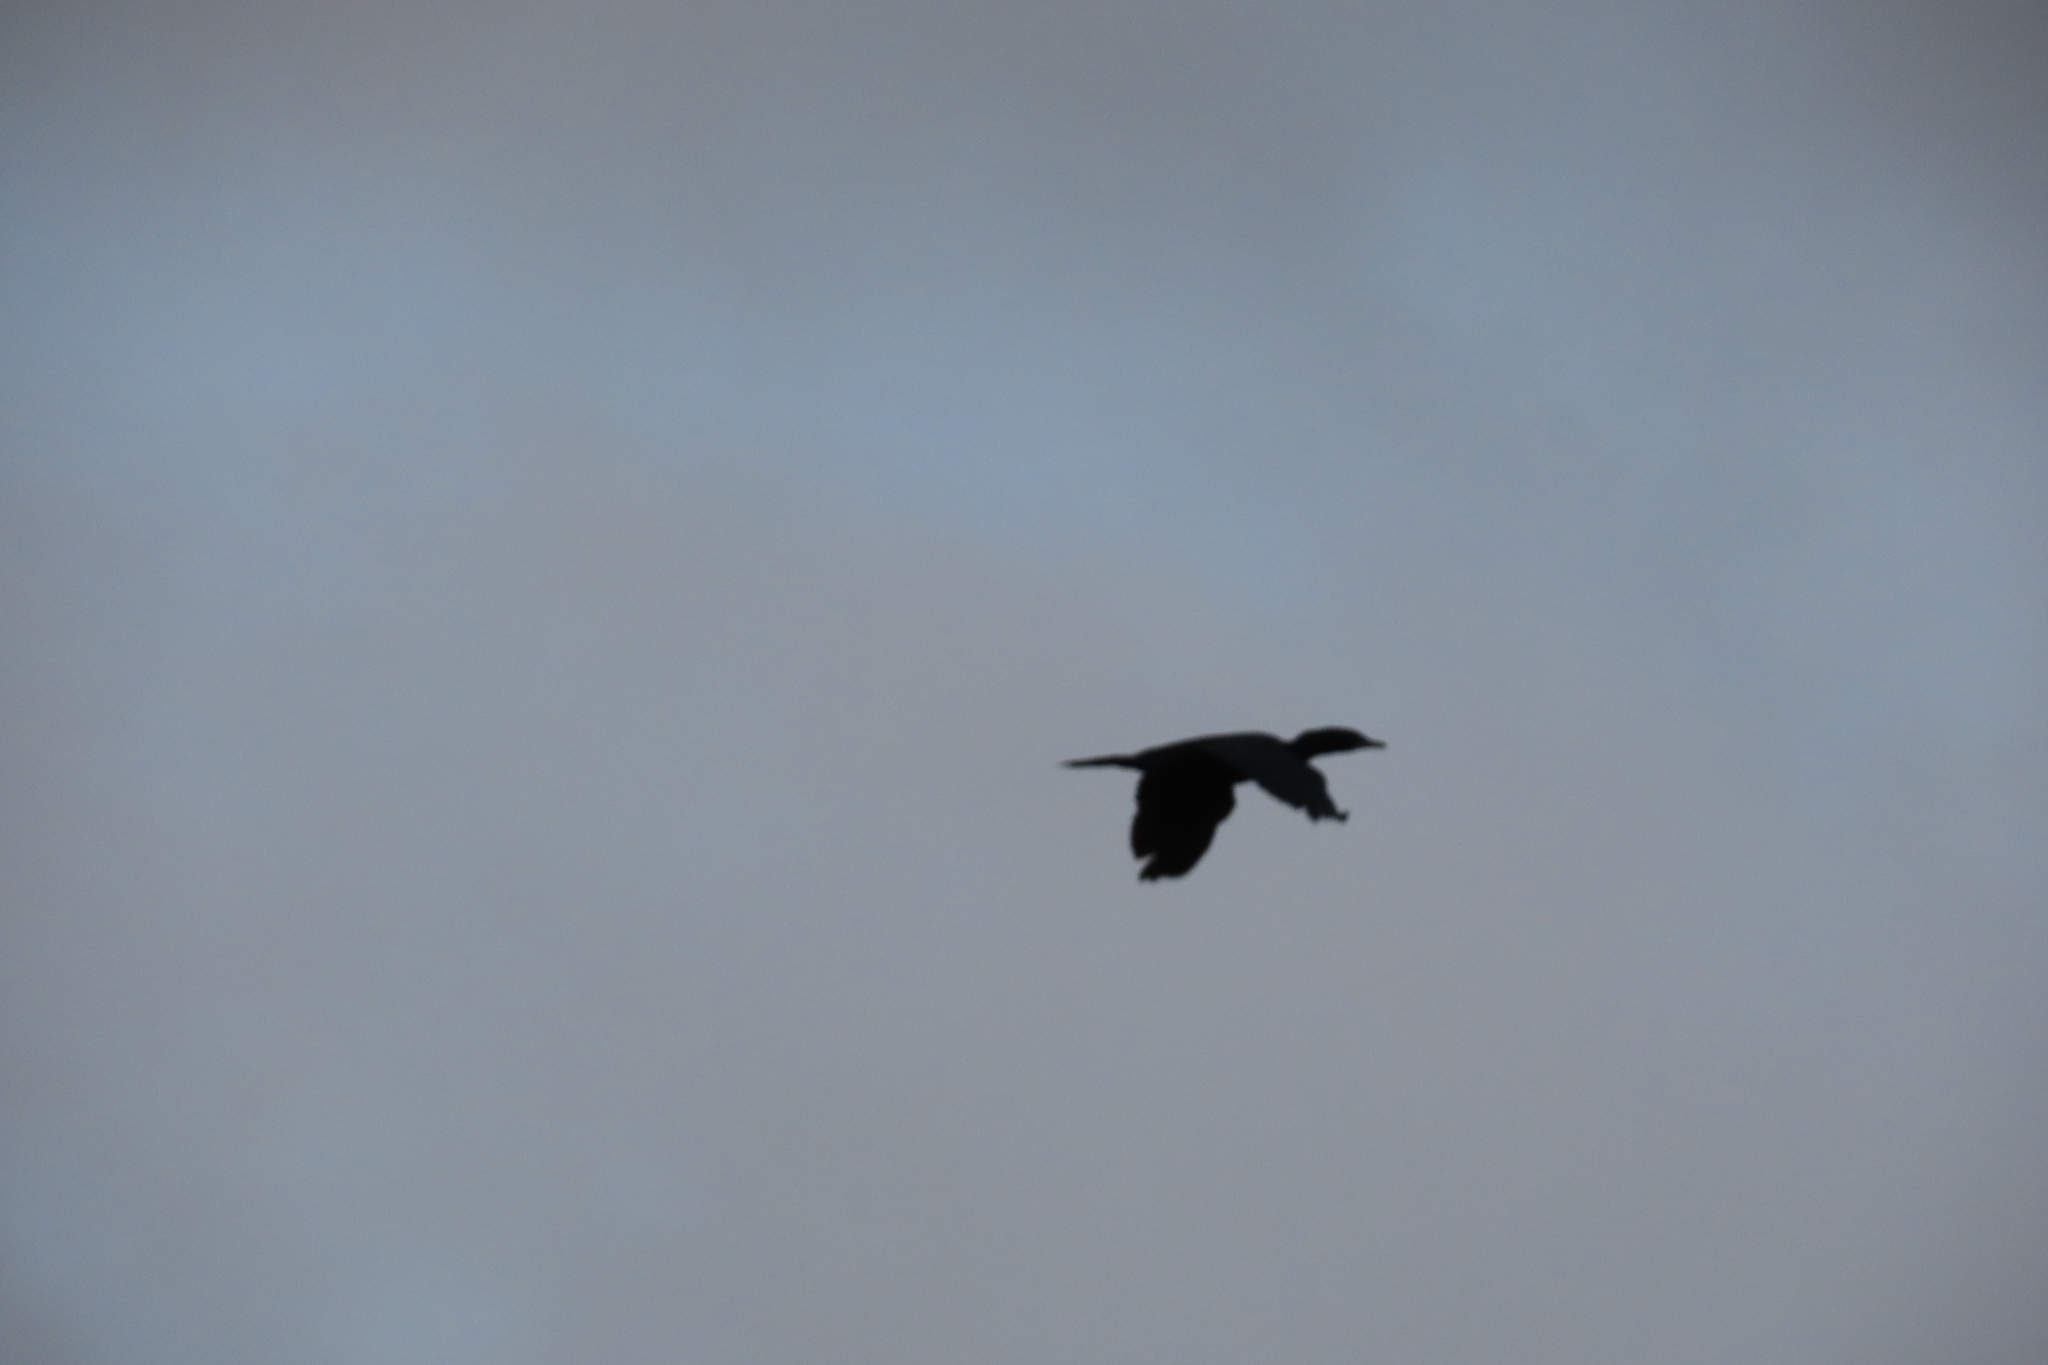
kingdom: Animalia
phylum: Chordata
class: Aves
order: Suliformes
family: Phalacrocoracidae
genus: Microcarbo
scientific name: Microcarbo niger
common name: Little cormorant
